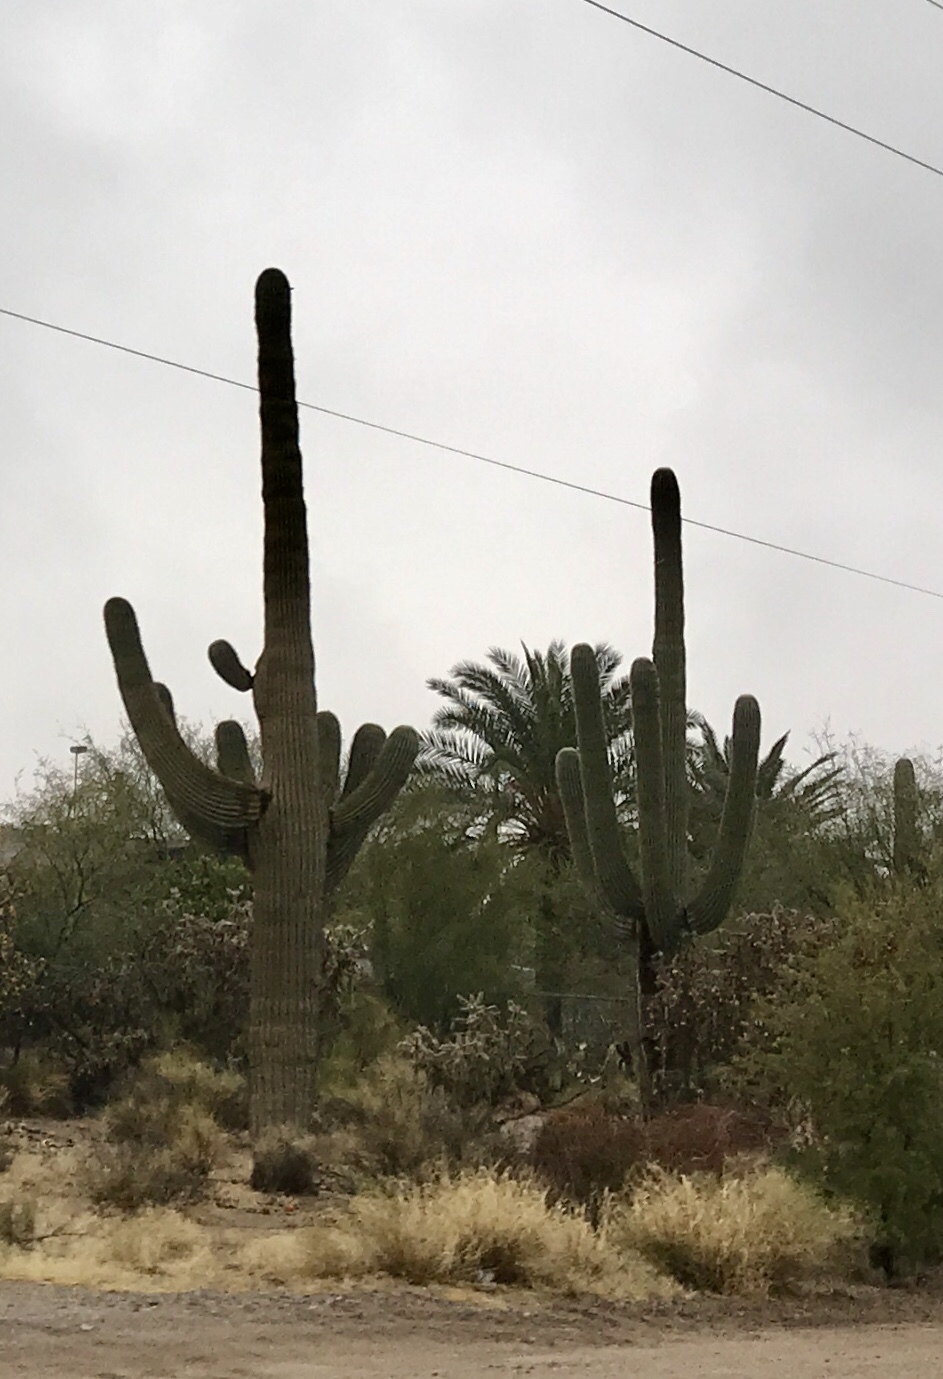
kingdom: Plantae
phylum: Tracheophyta
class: Magnoliopsida
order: Caryophyllales
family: Cactaceae
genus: Carnegiea
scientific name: Carnegiea gigantea
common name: Saguaro
